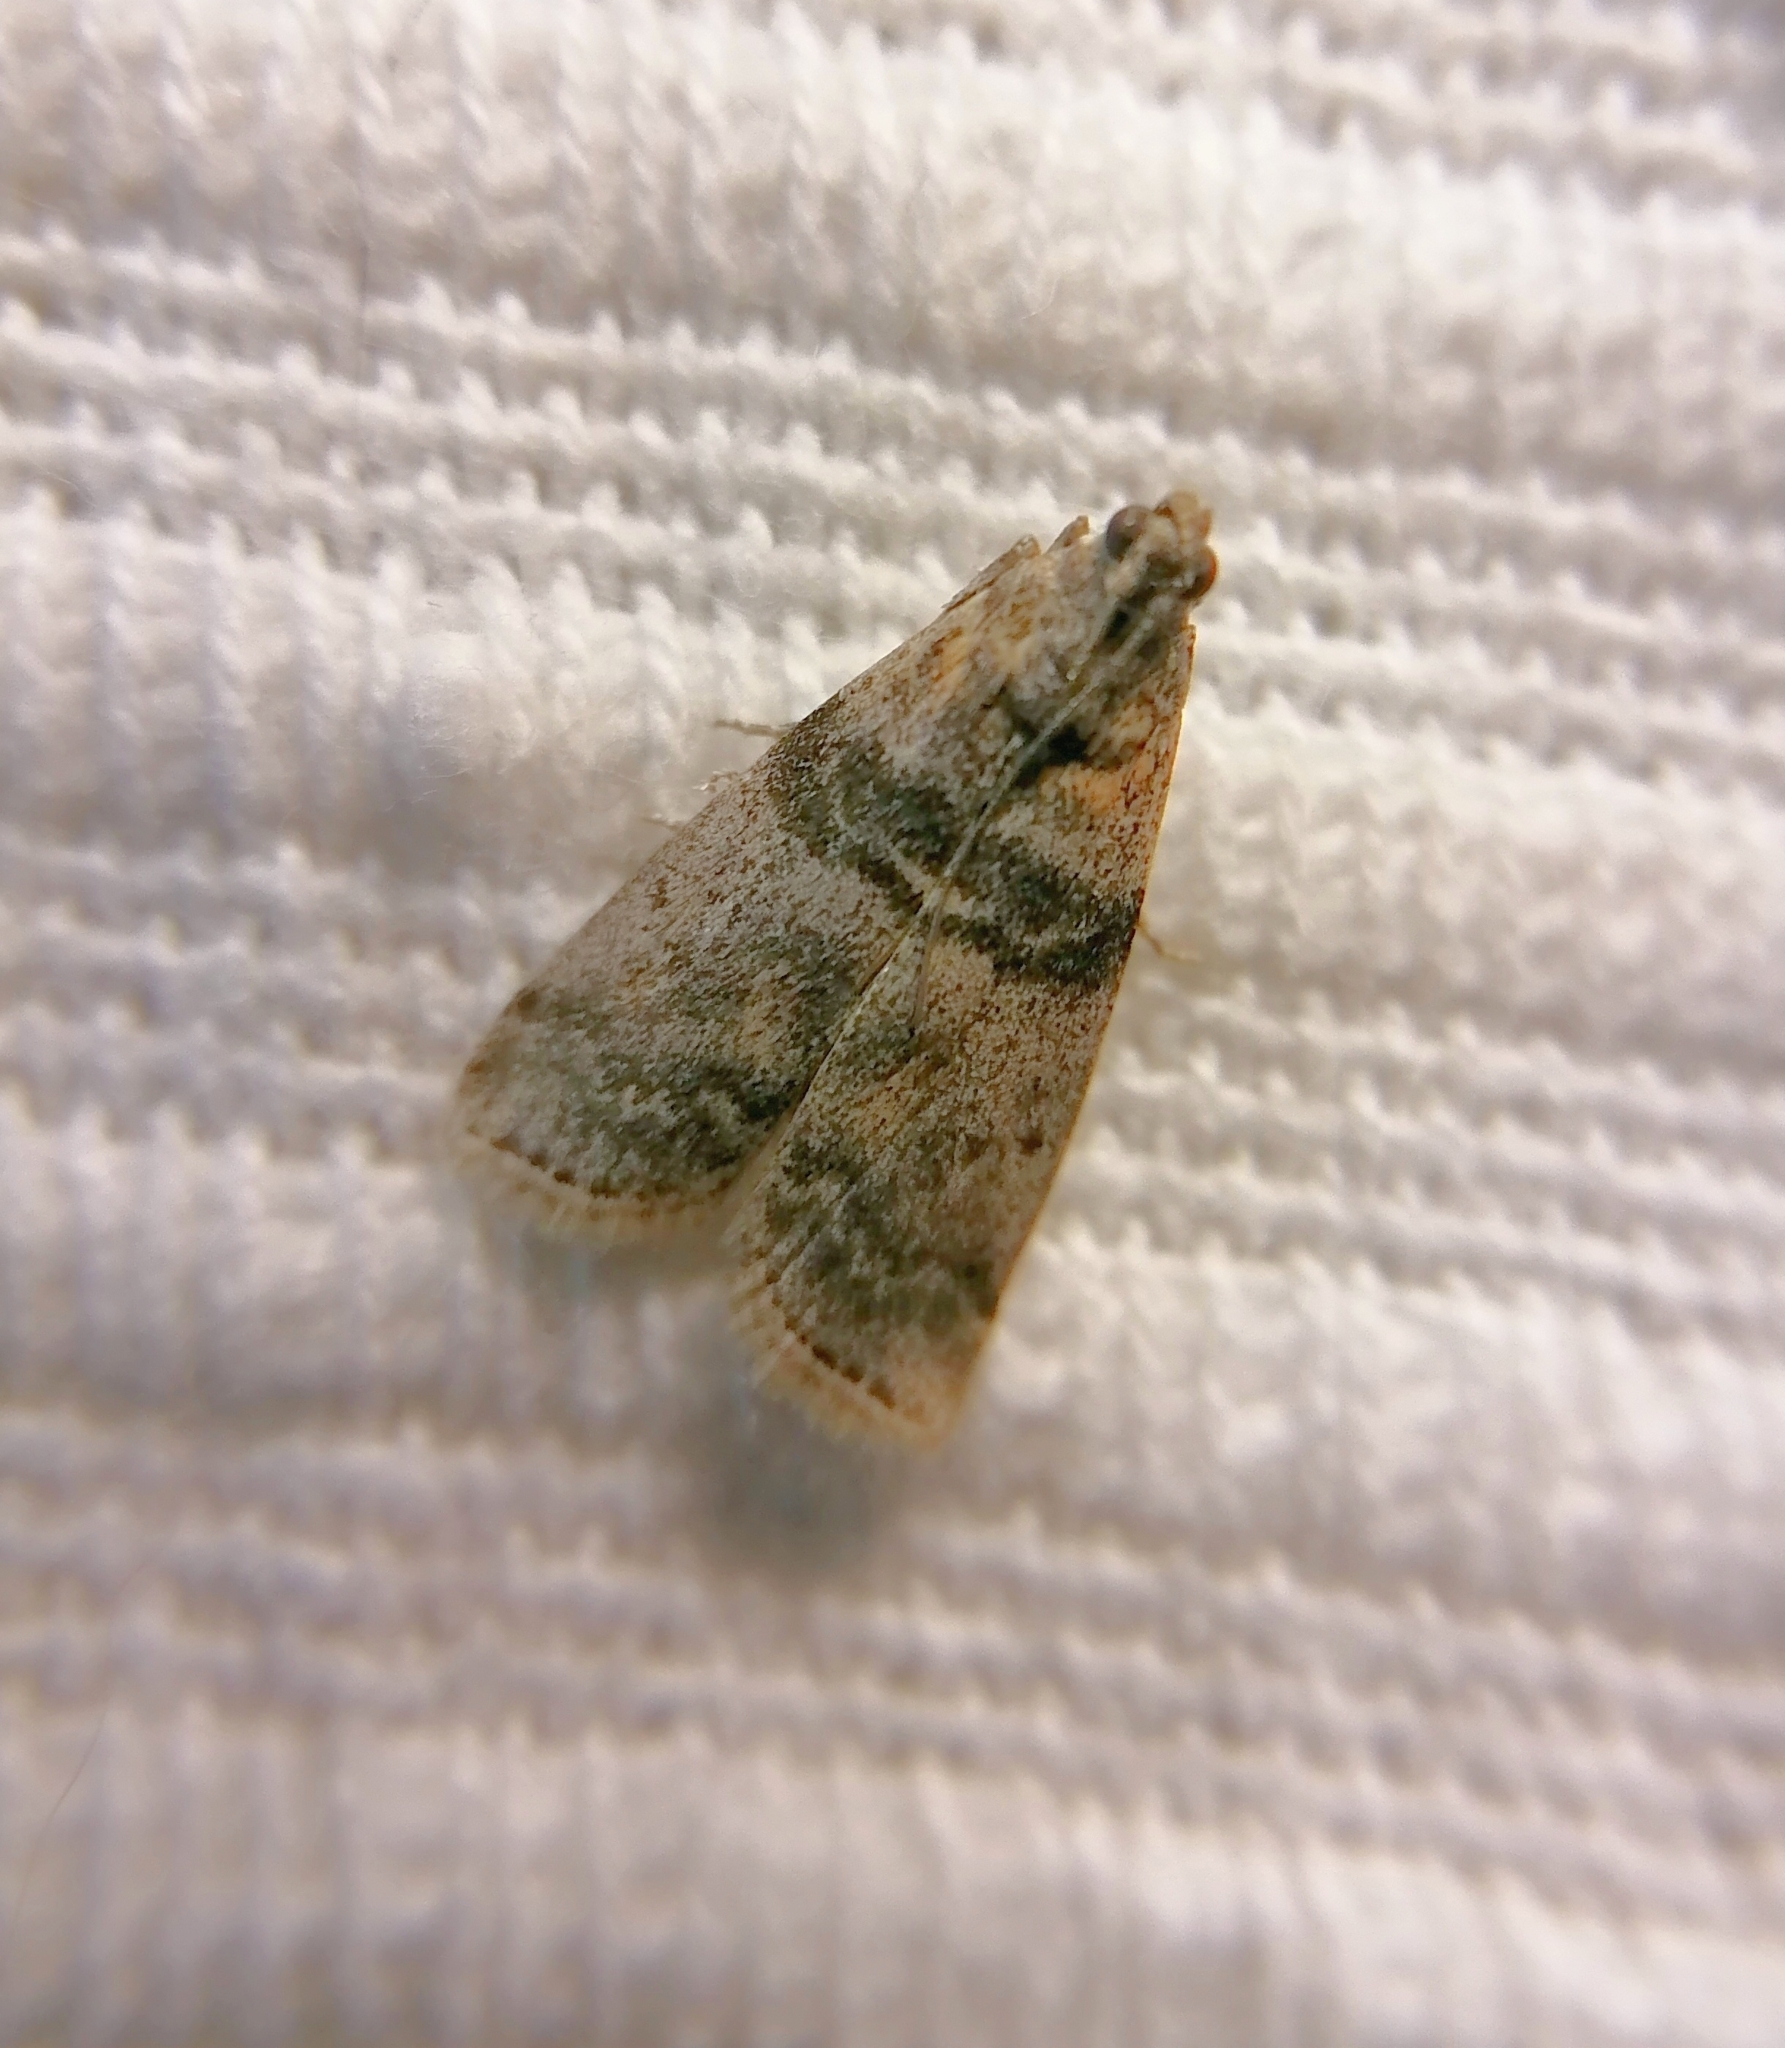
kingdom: Animalia
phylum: Arthropoda
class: Insecta
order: Lepidoptera
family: Pyralidae
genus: Sciota
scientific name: Sciota rhenella
